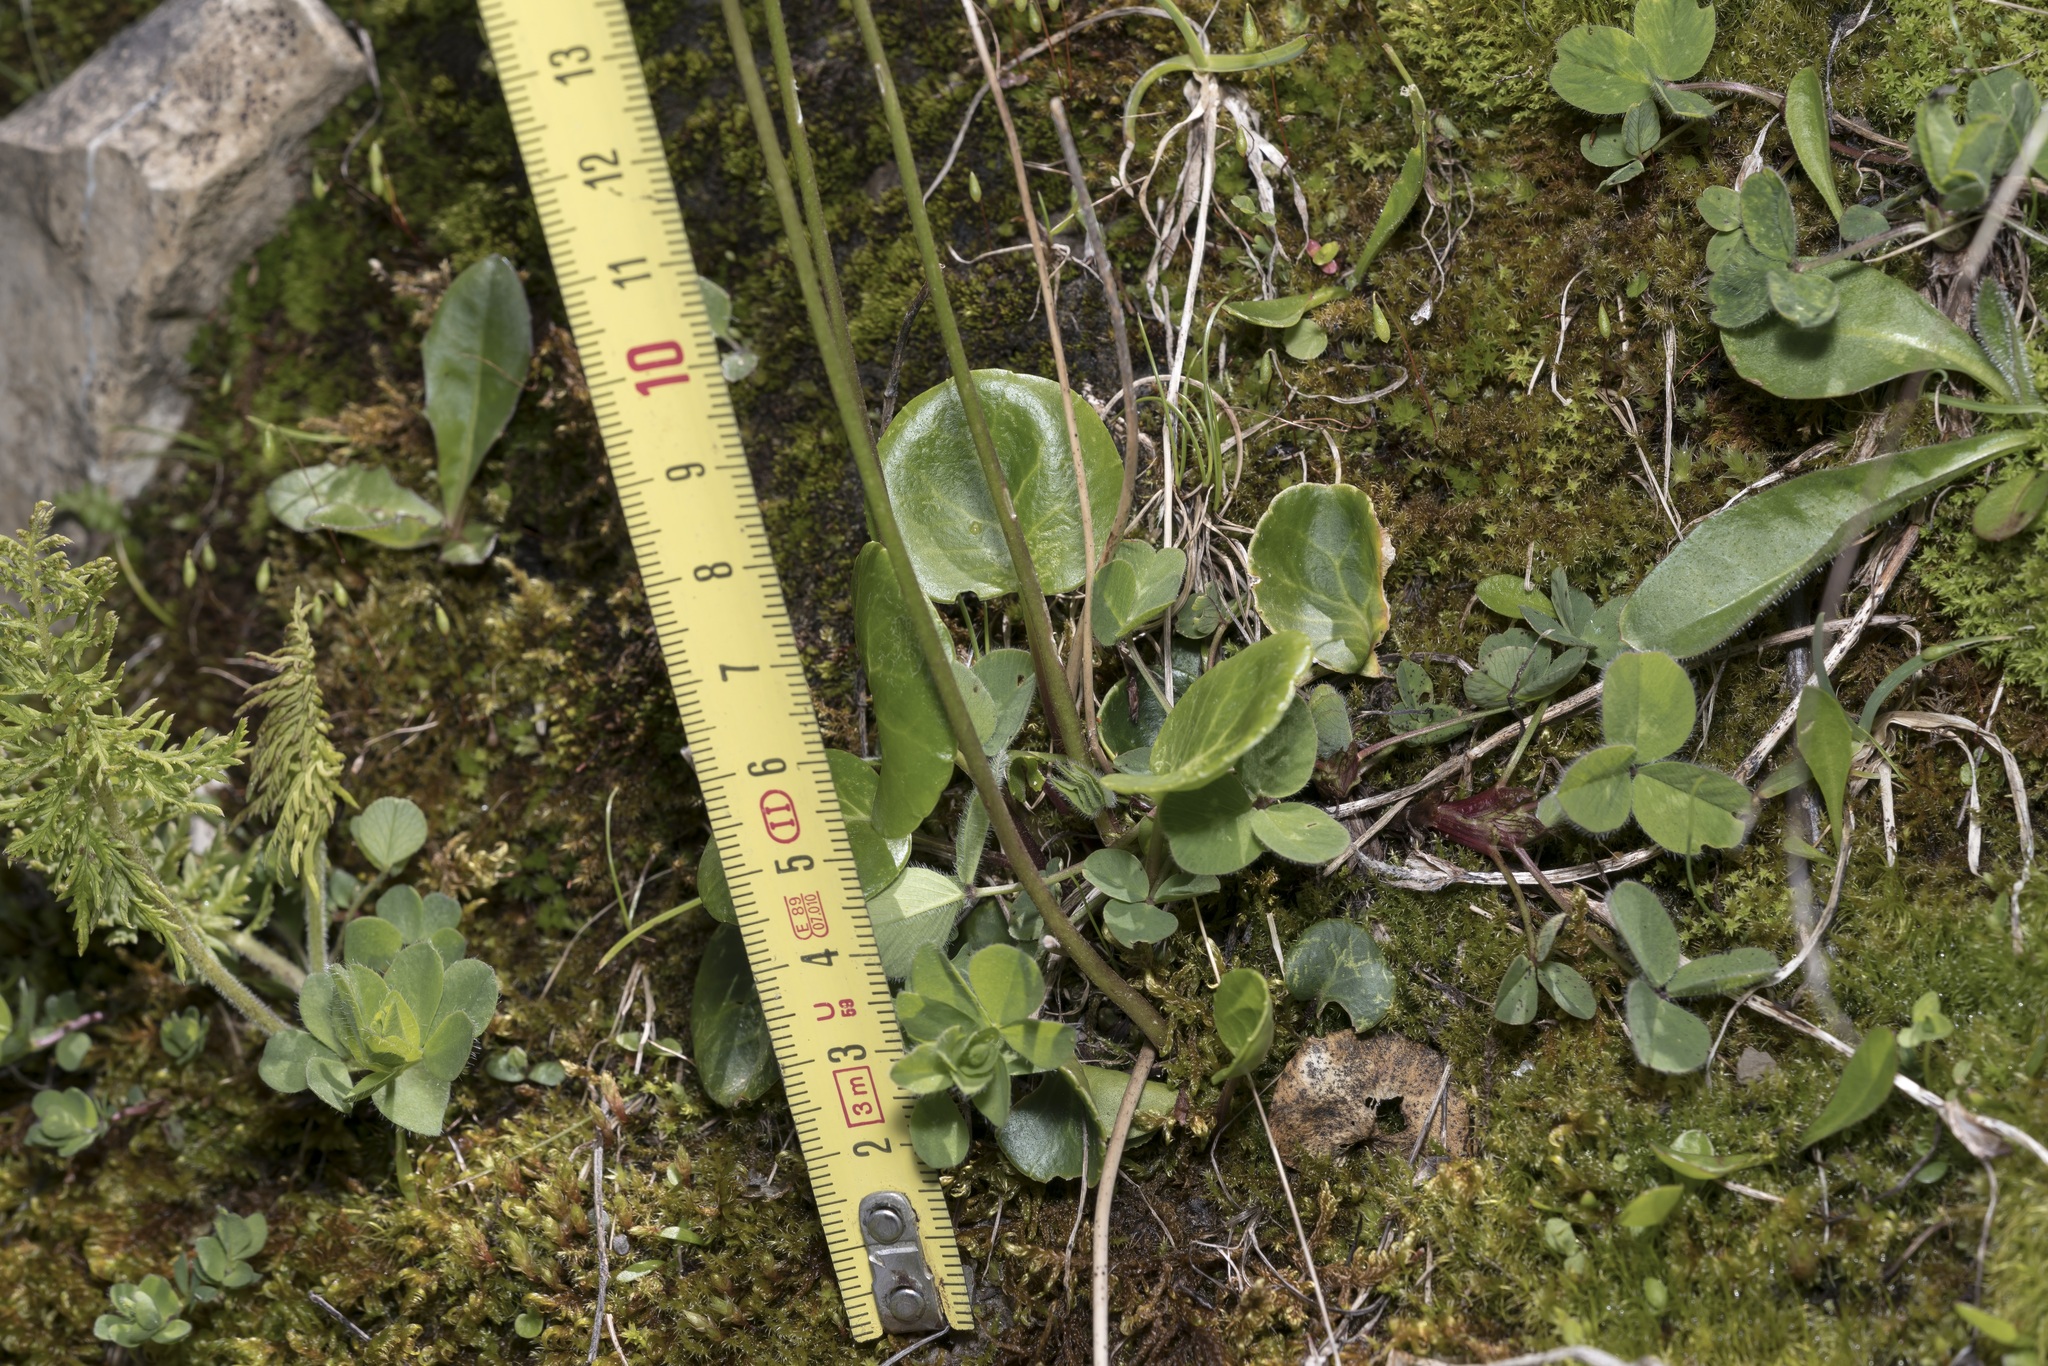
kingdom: Plantae
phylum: Tracheophyta
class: Magnoliopsida
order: Ericales
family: Primulaceae
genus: Soldanella
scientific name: Soldanella alpina
